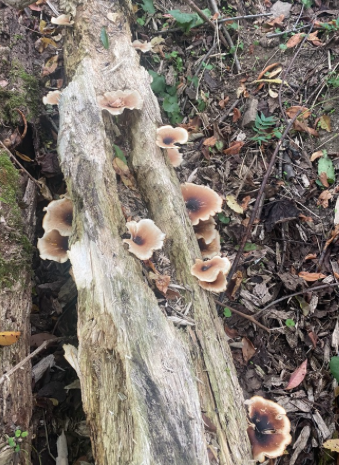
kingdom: Fungi
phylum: Basidiomycota
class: Agaricomycetes
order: Polyporales
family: Polyporaceae
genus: Picipes
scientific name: Picipes badius
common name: Bay polypore
